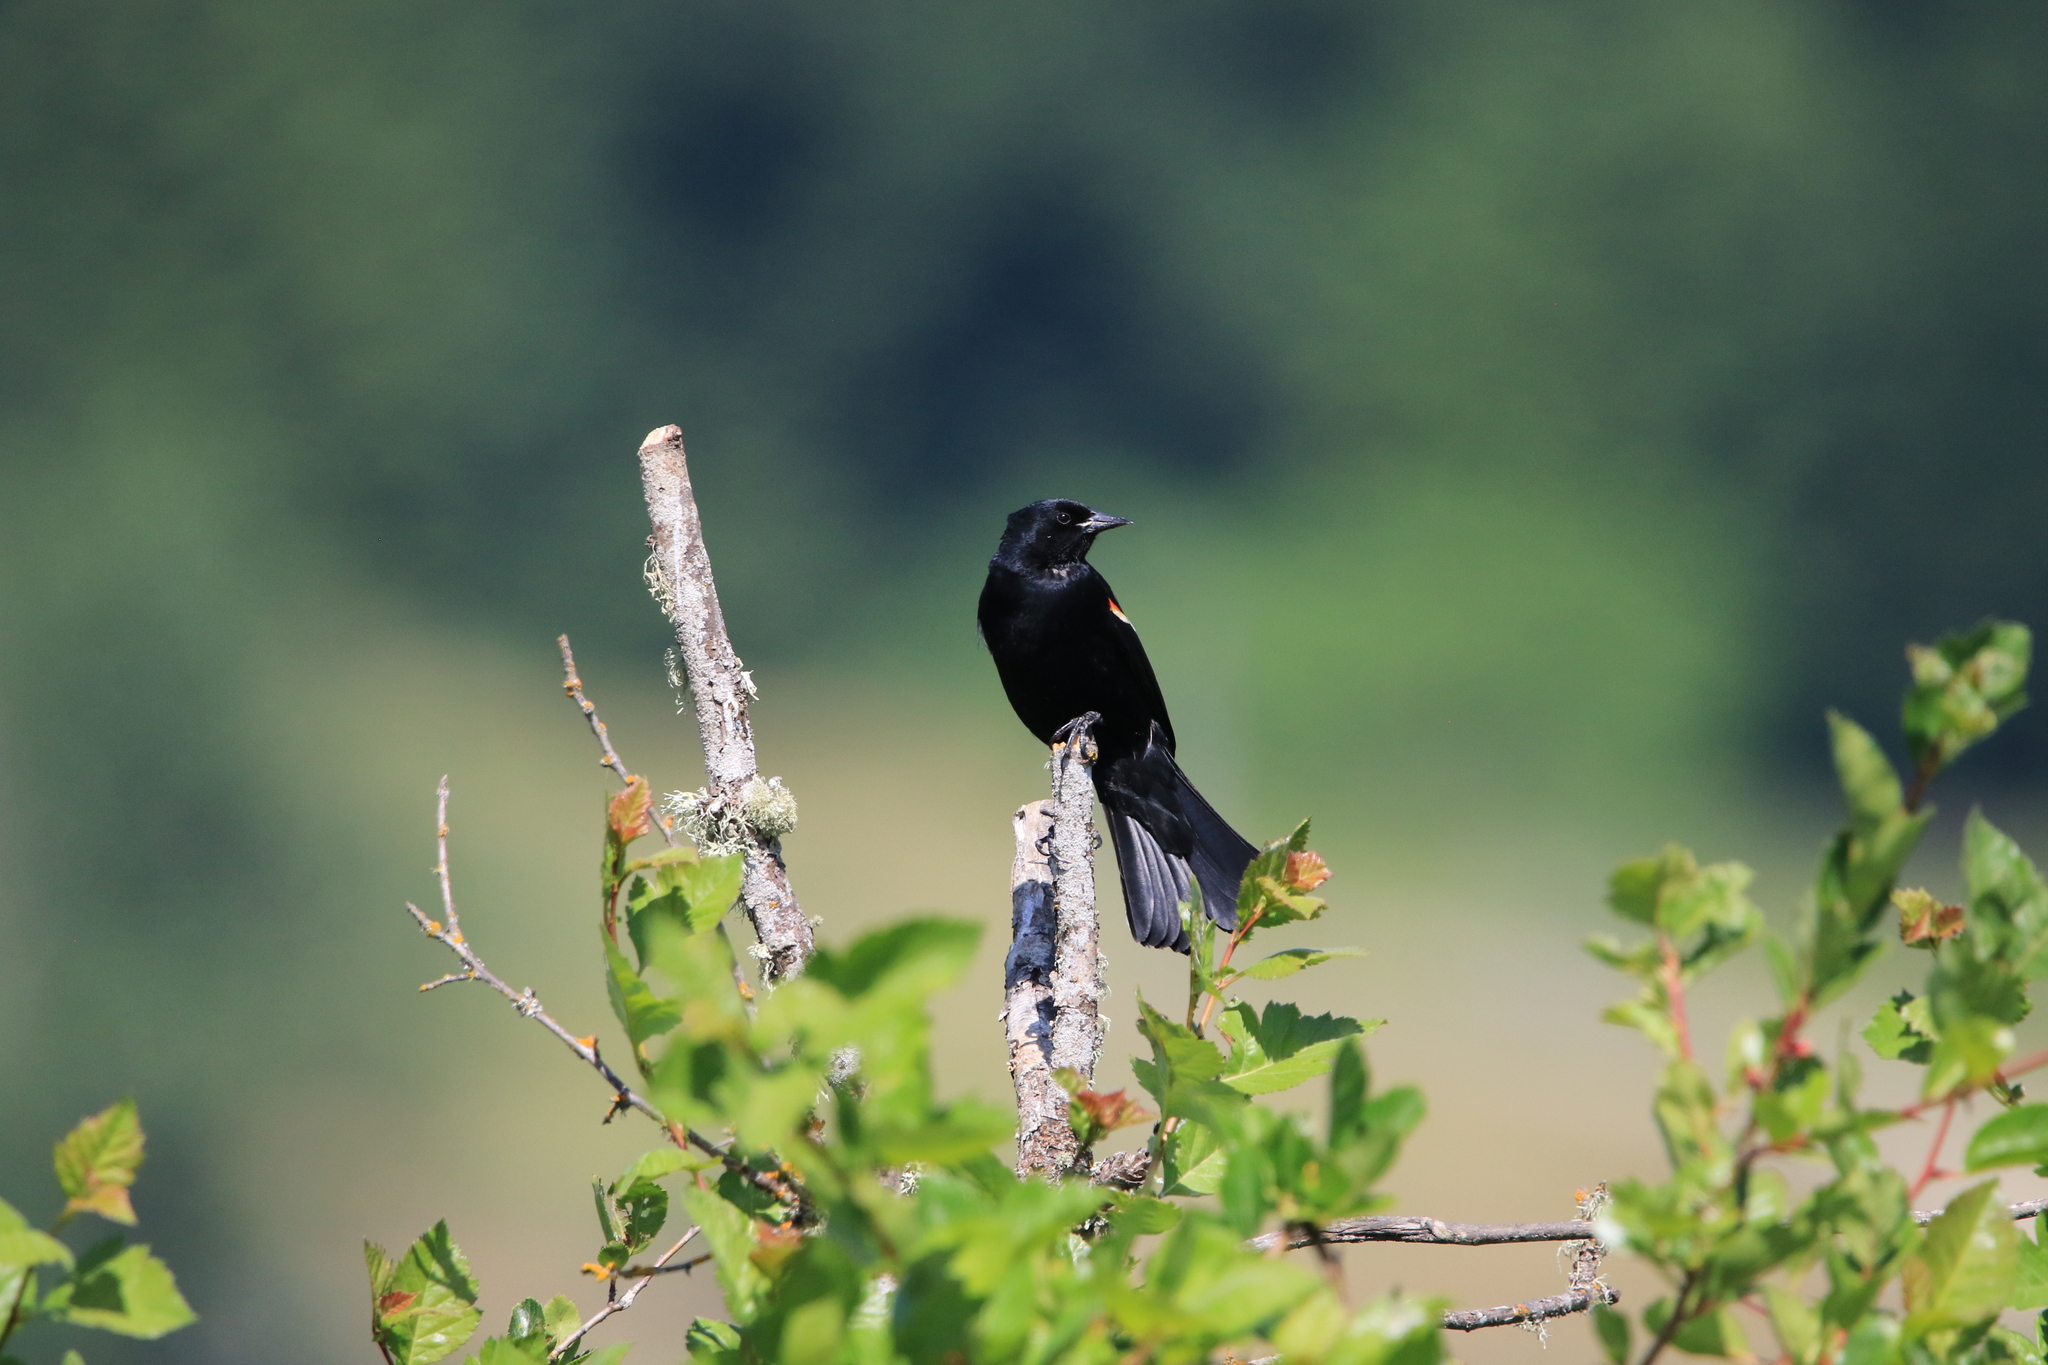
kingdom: Animalia
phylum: Chordata
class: Aves
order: Passeriformes
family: Icteridae
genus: Agelaius
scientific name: Agelaius phoeniceus
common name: Red-winged blackbird
